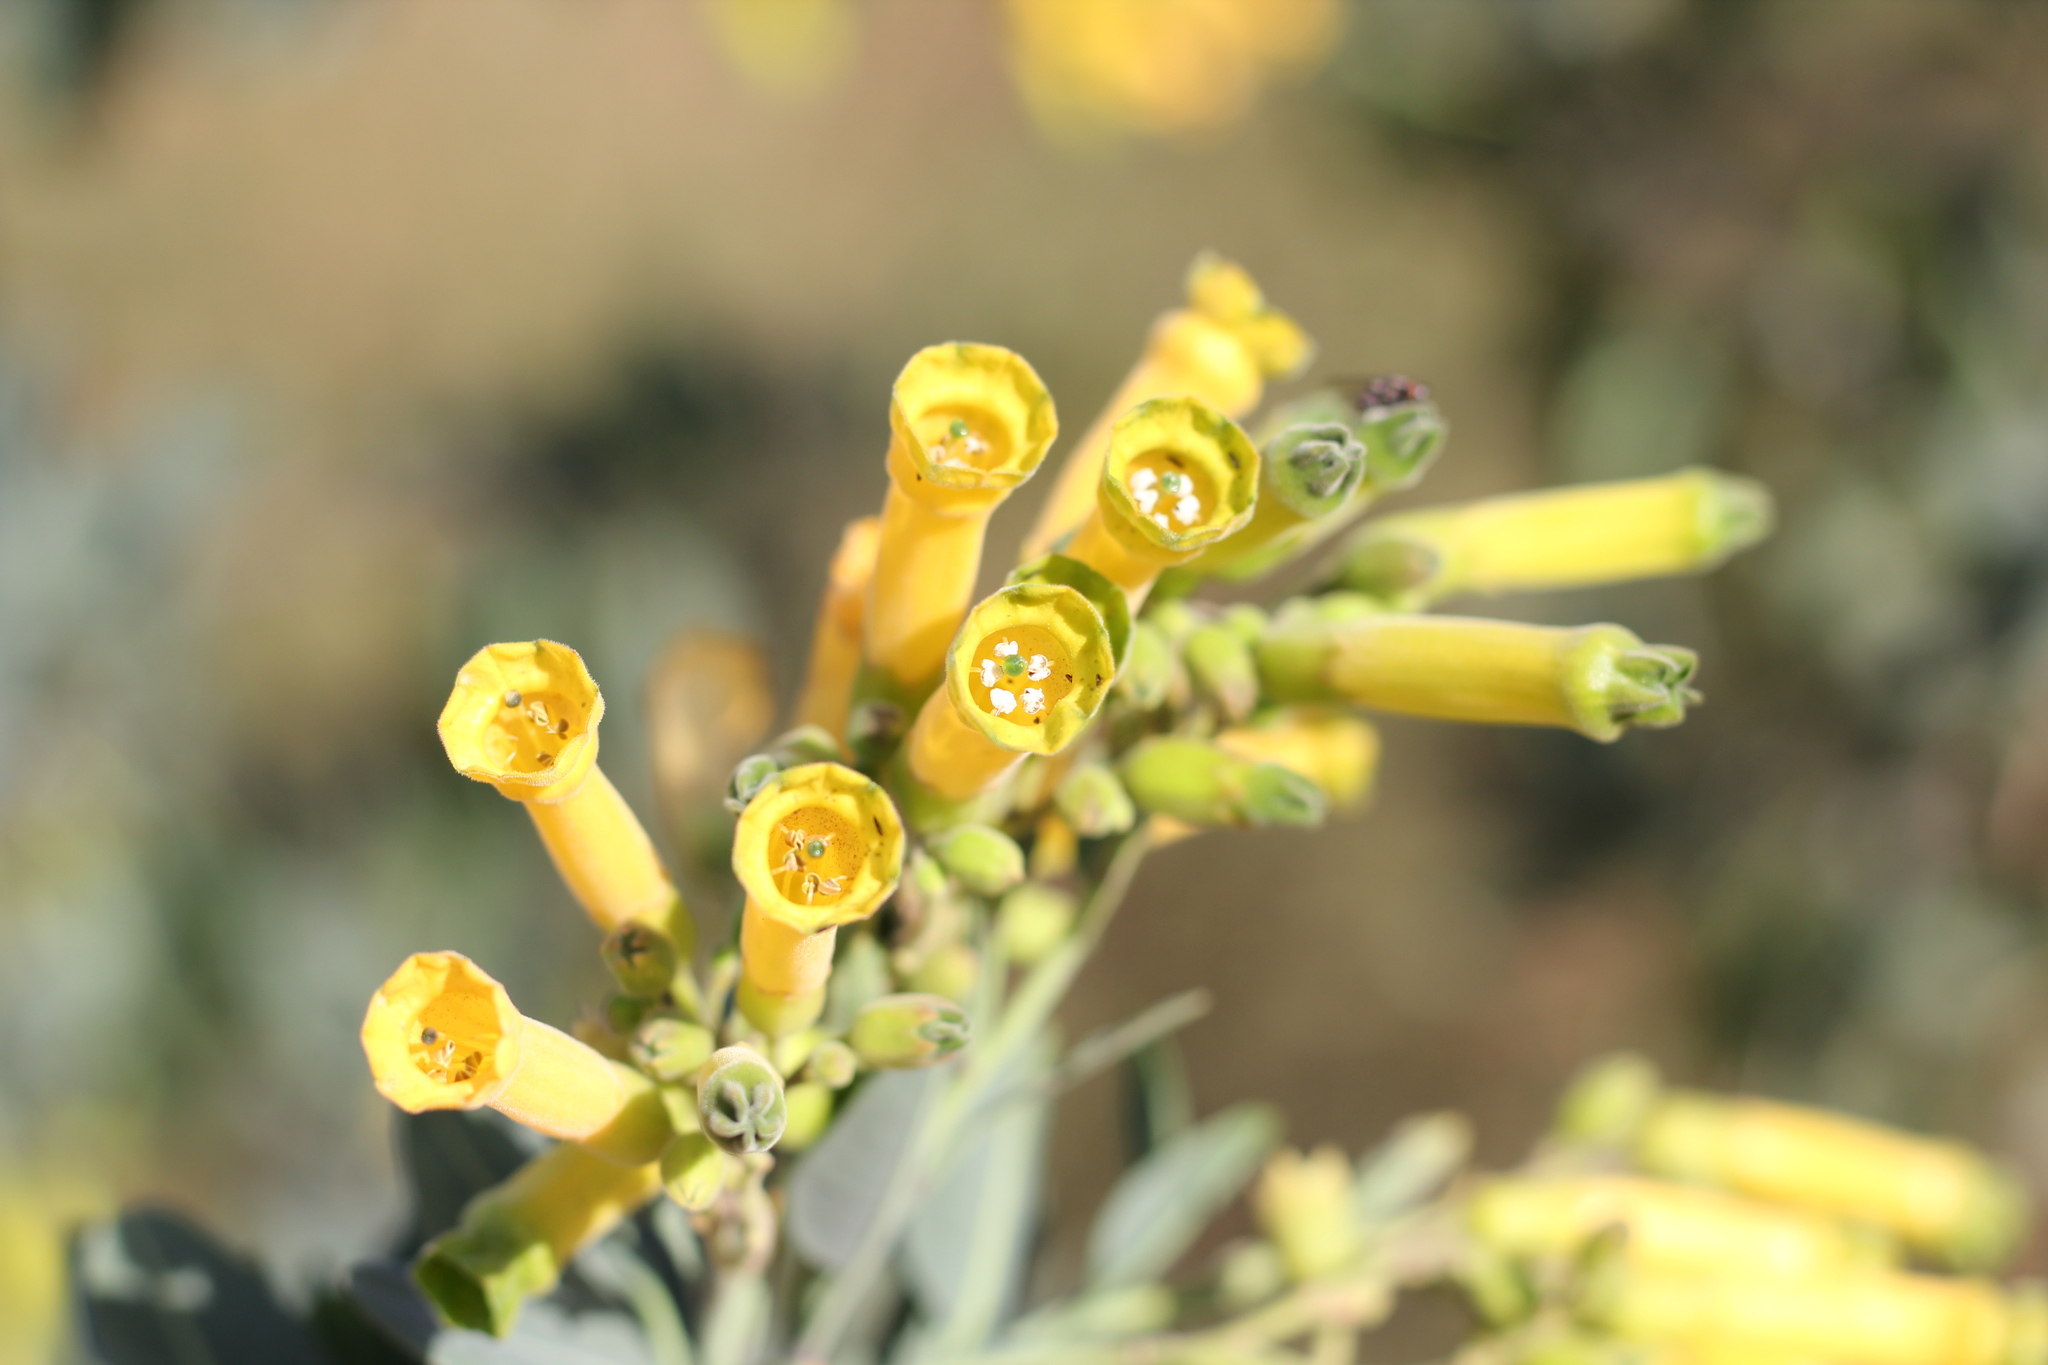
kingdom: Plantae
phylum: Tracheophyta
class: Magnoliopsida
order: Solanales
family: Solanaceae
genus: Nicotiana
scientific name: Nicotiana glauca
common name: Tree tobacco
